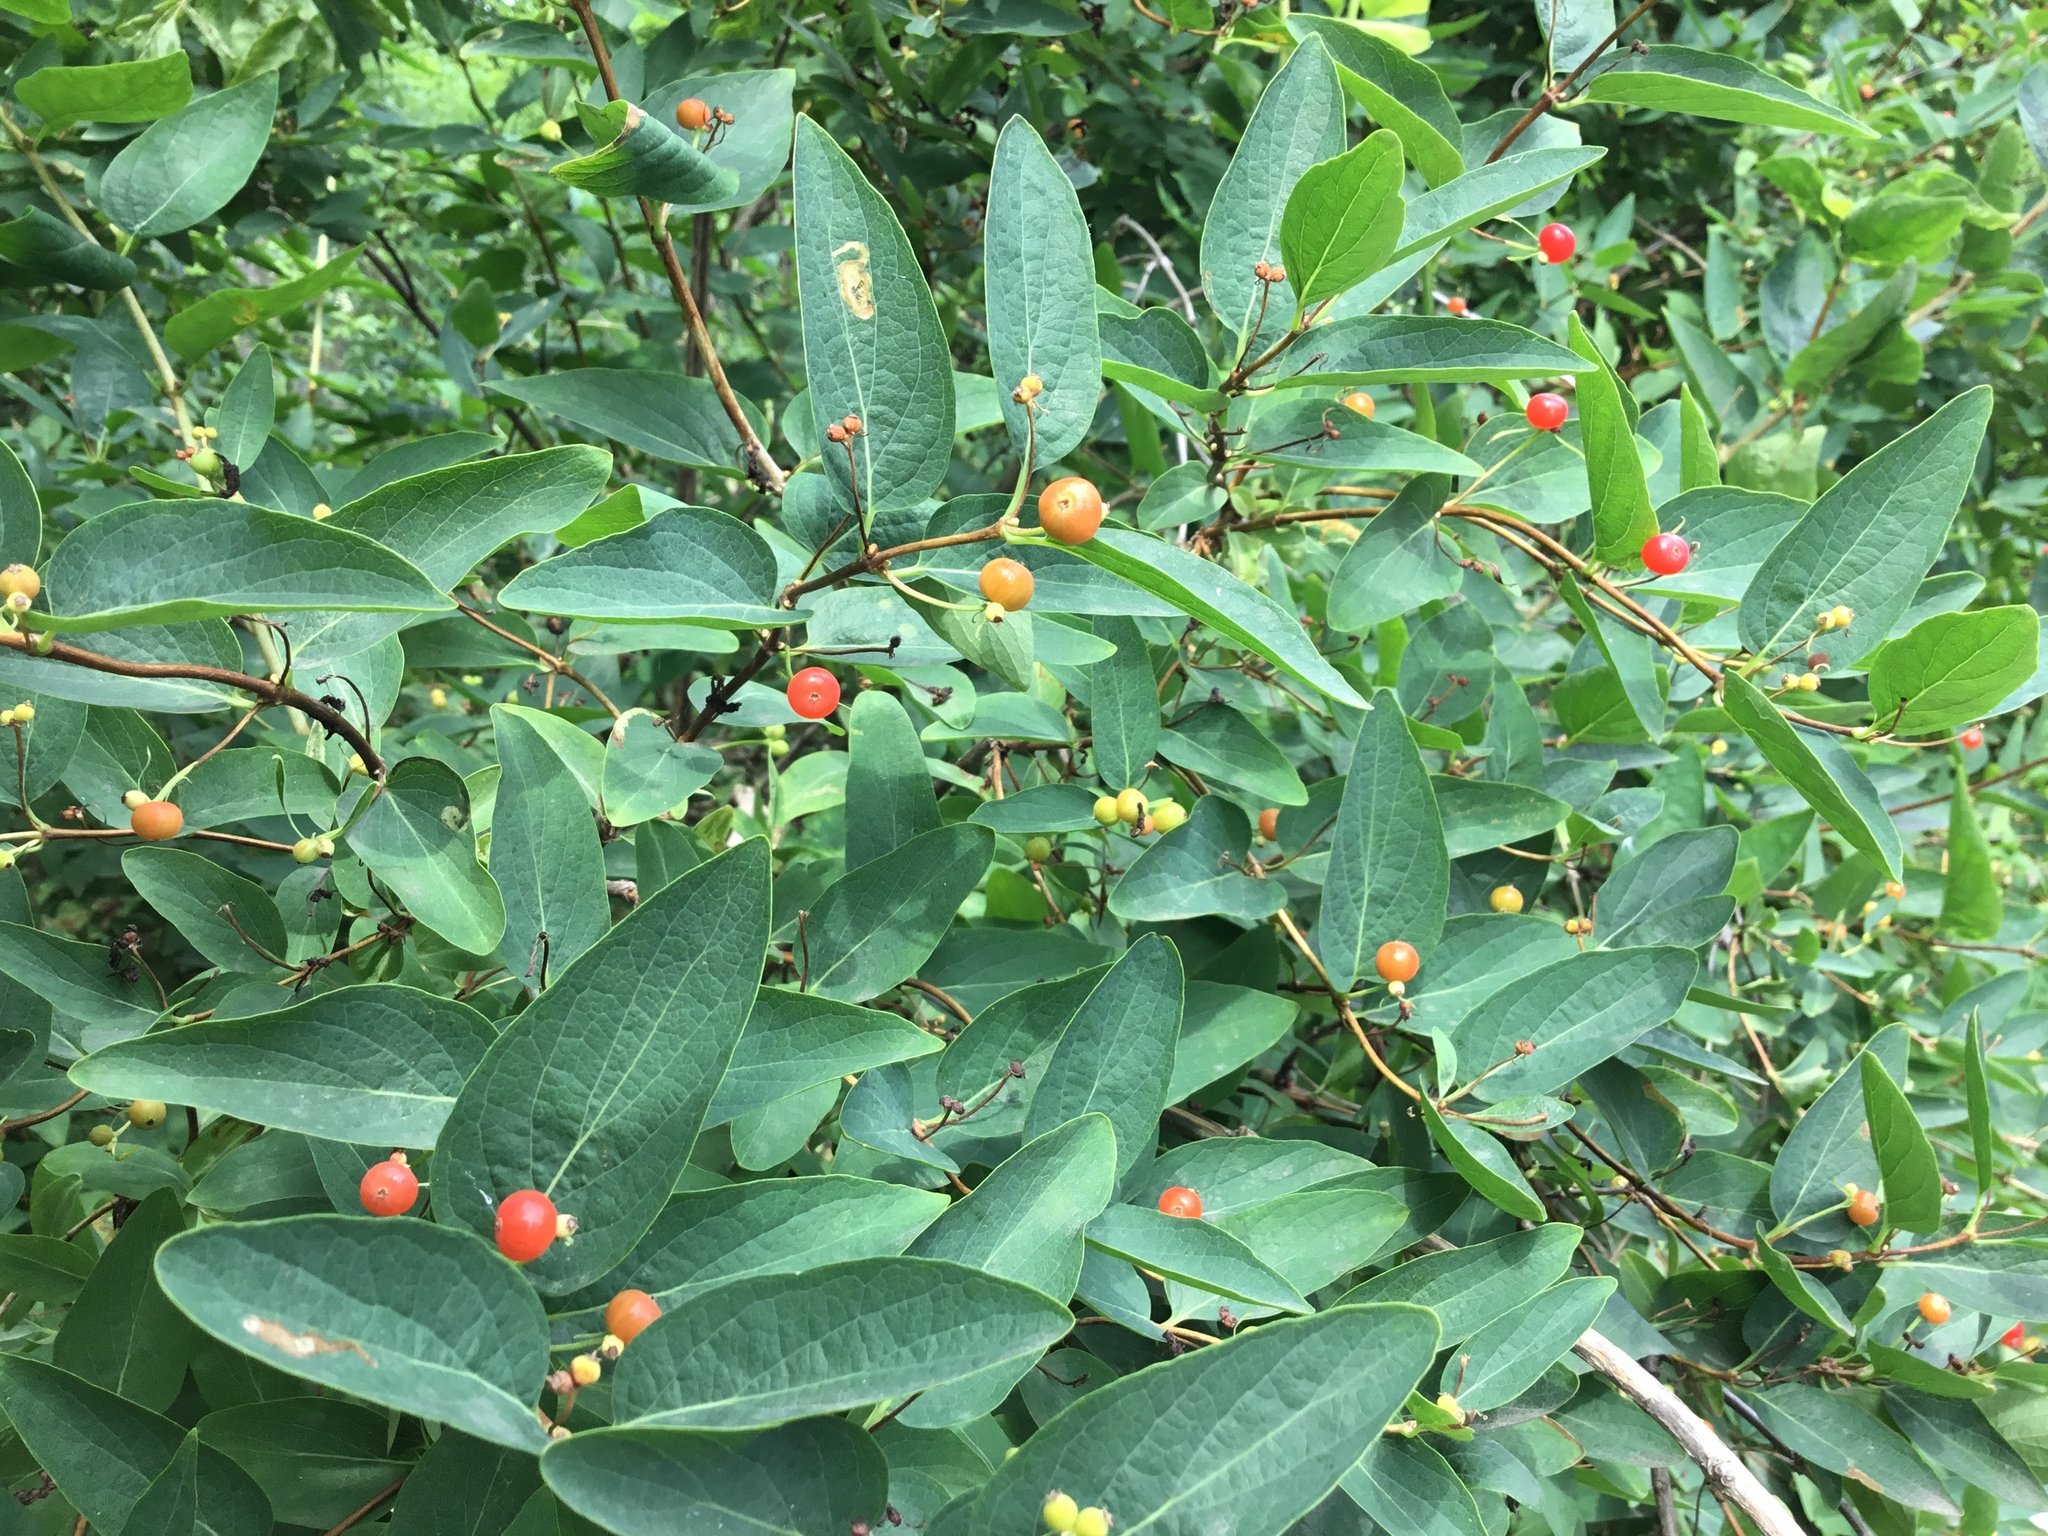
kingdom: Plantae
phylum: Tracheophyta
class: Magnoliopsida
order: Dipsacales
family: Caprifoliaceae
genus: Lonicera
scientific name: Lonicera tatarica
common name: Tatarian honeysuckle
